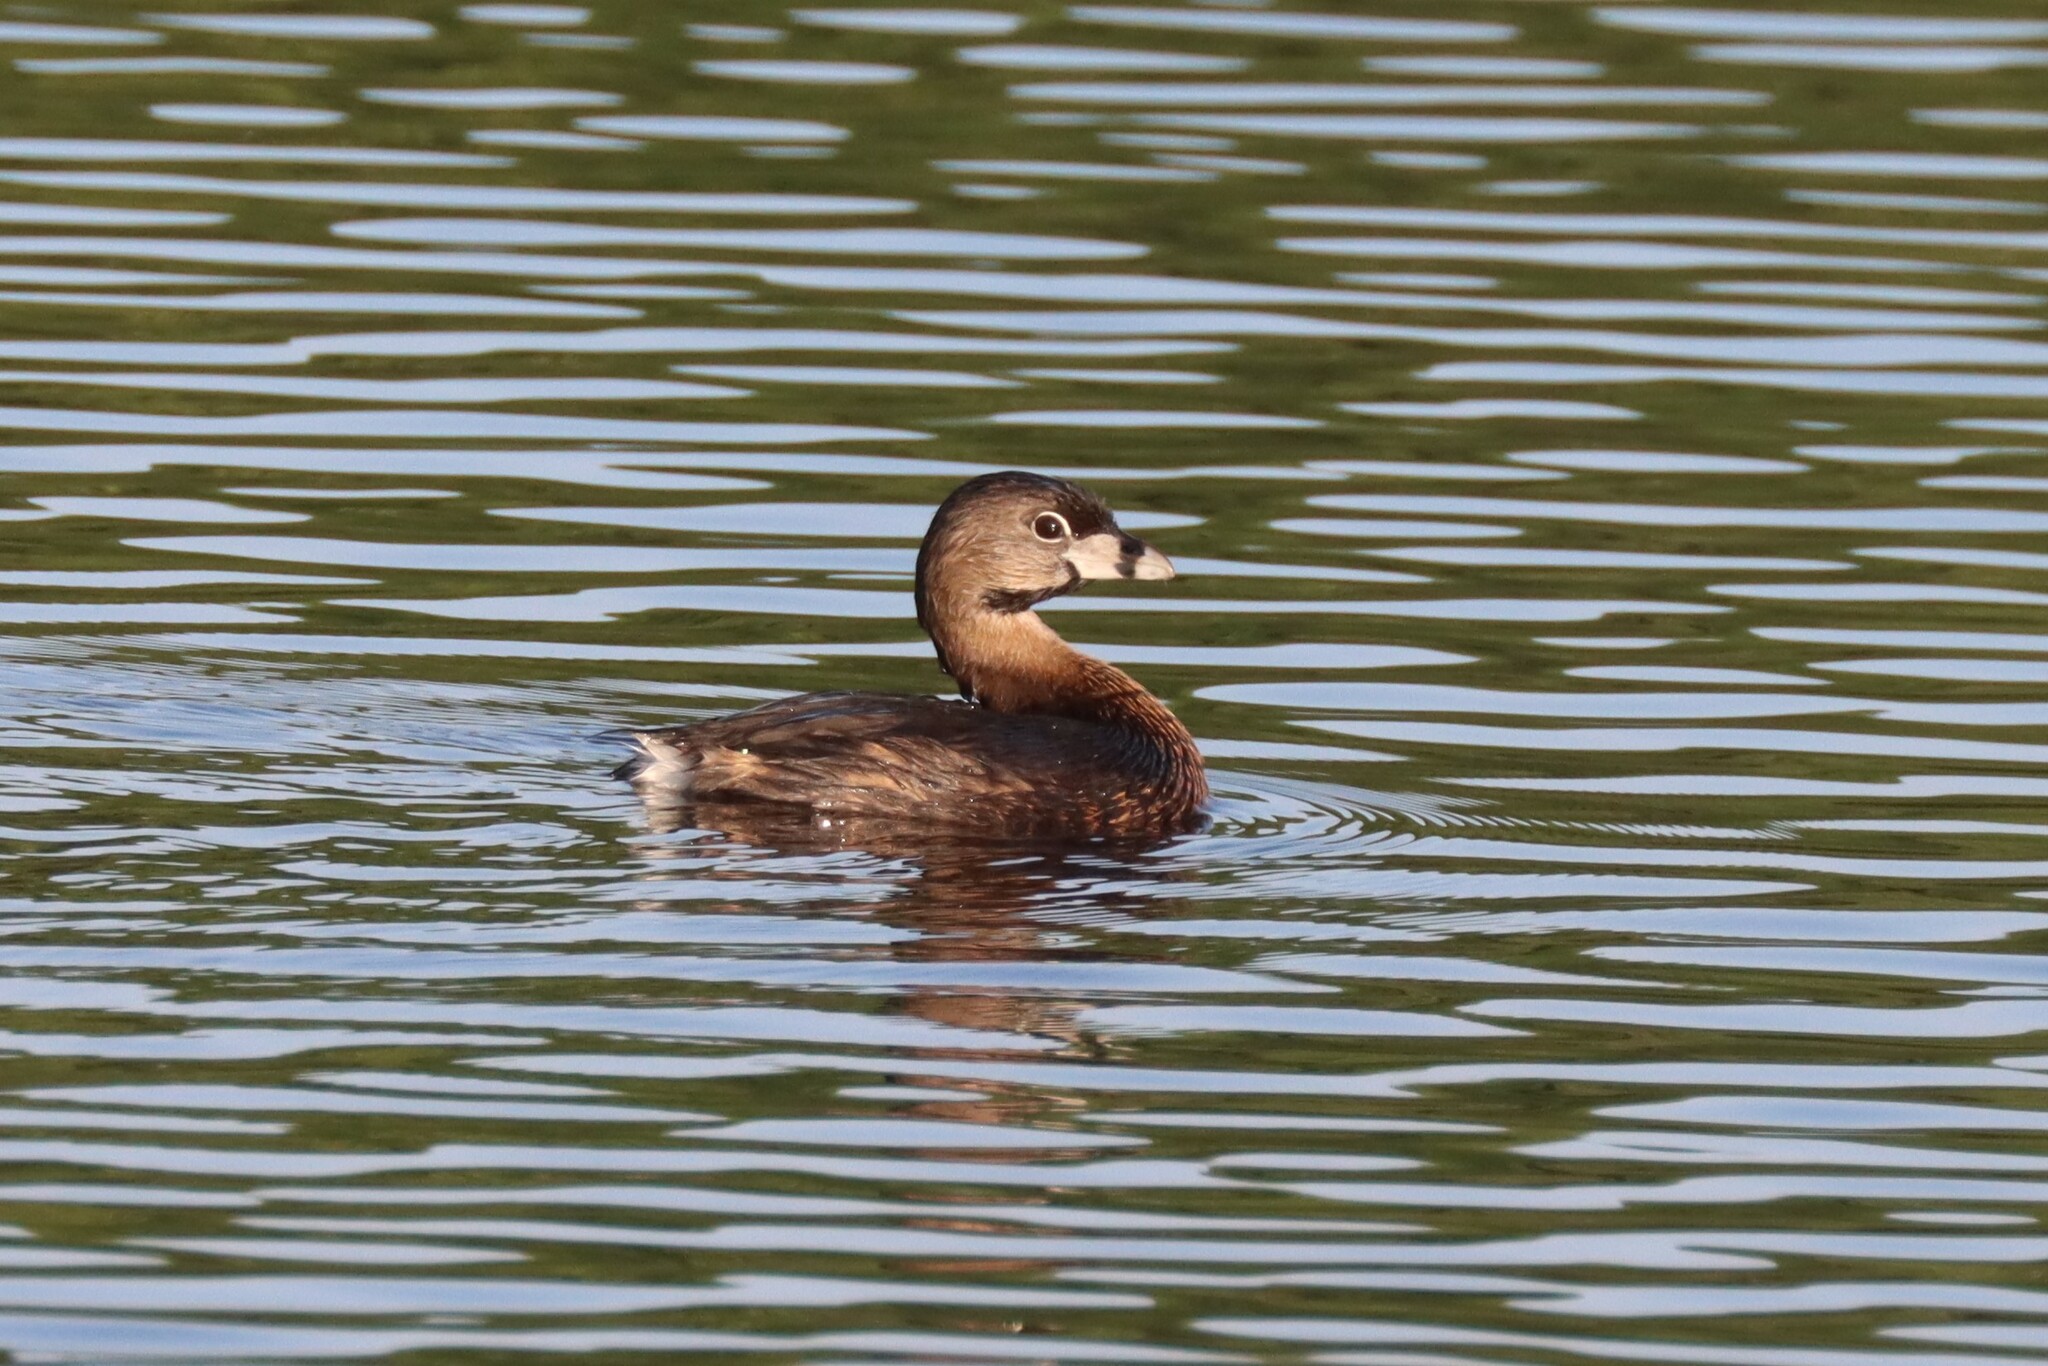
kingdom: Animalia
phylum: Chordata
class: Aves
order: Podicipediformes
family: Podicipedidae
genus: Podilymbus
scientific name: Podilymbus podiceps
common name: Pied-billed grebe
